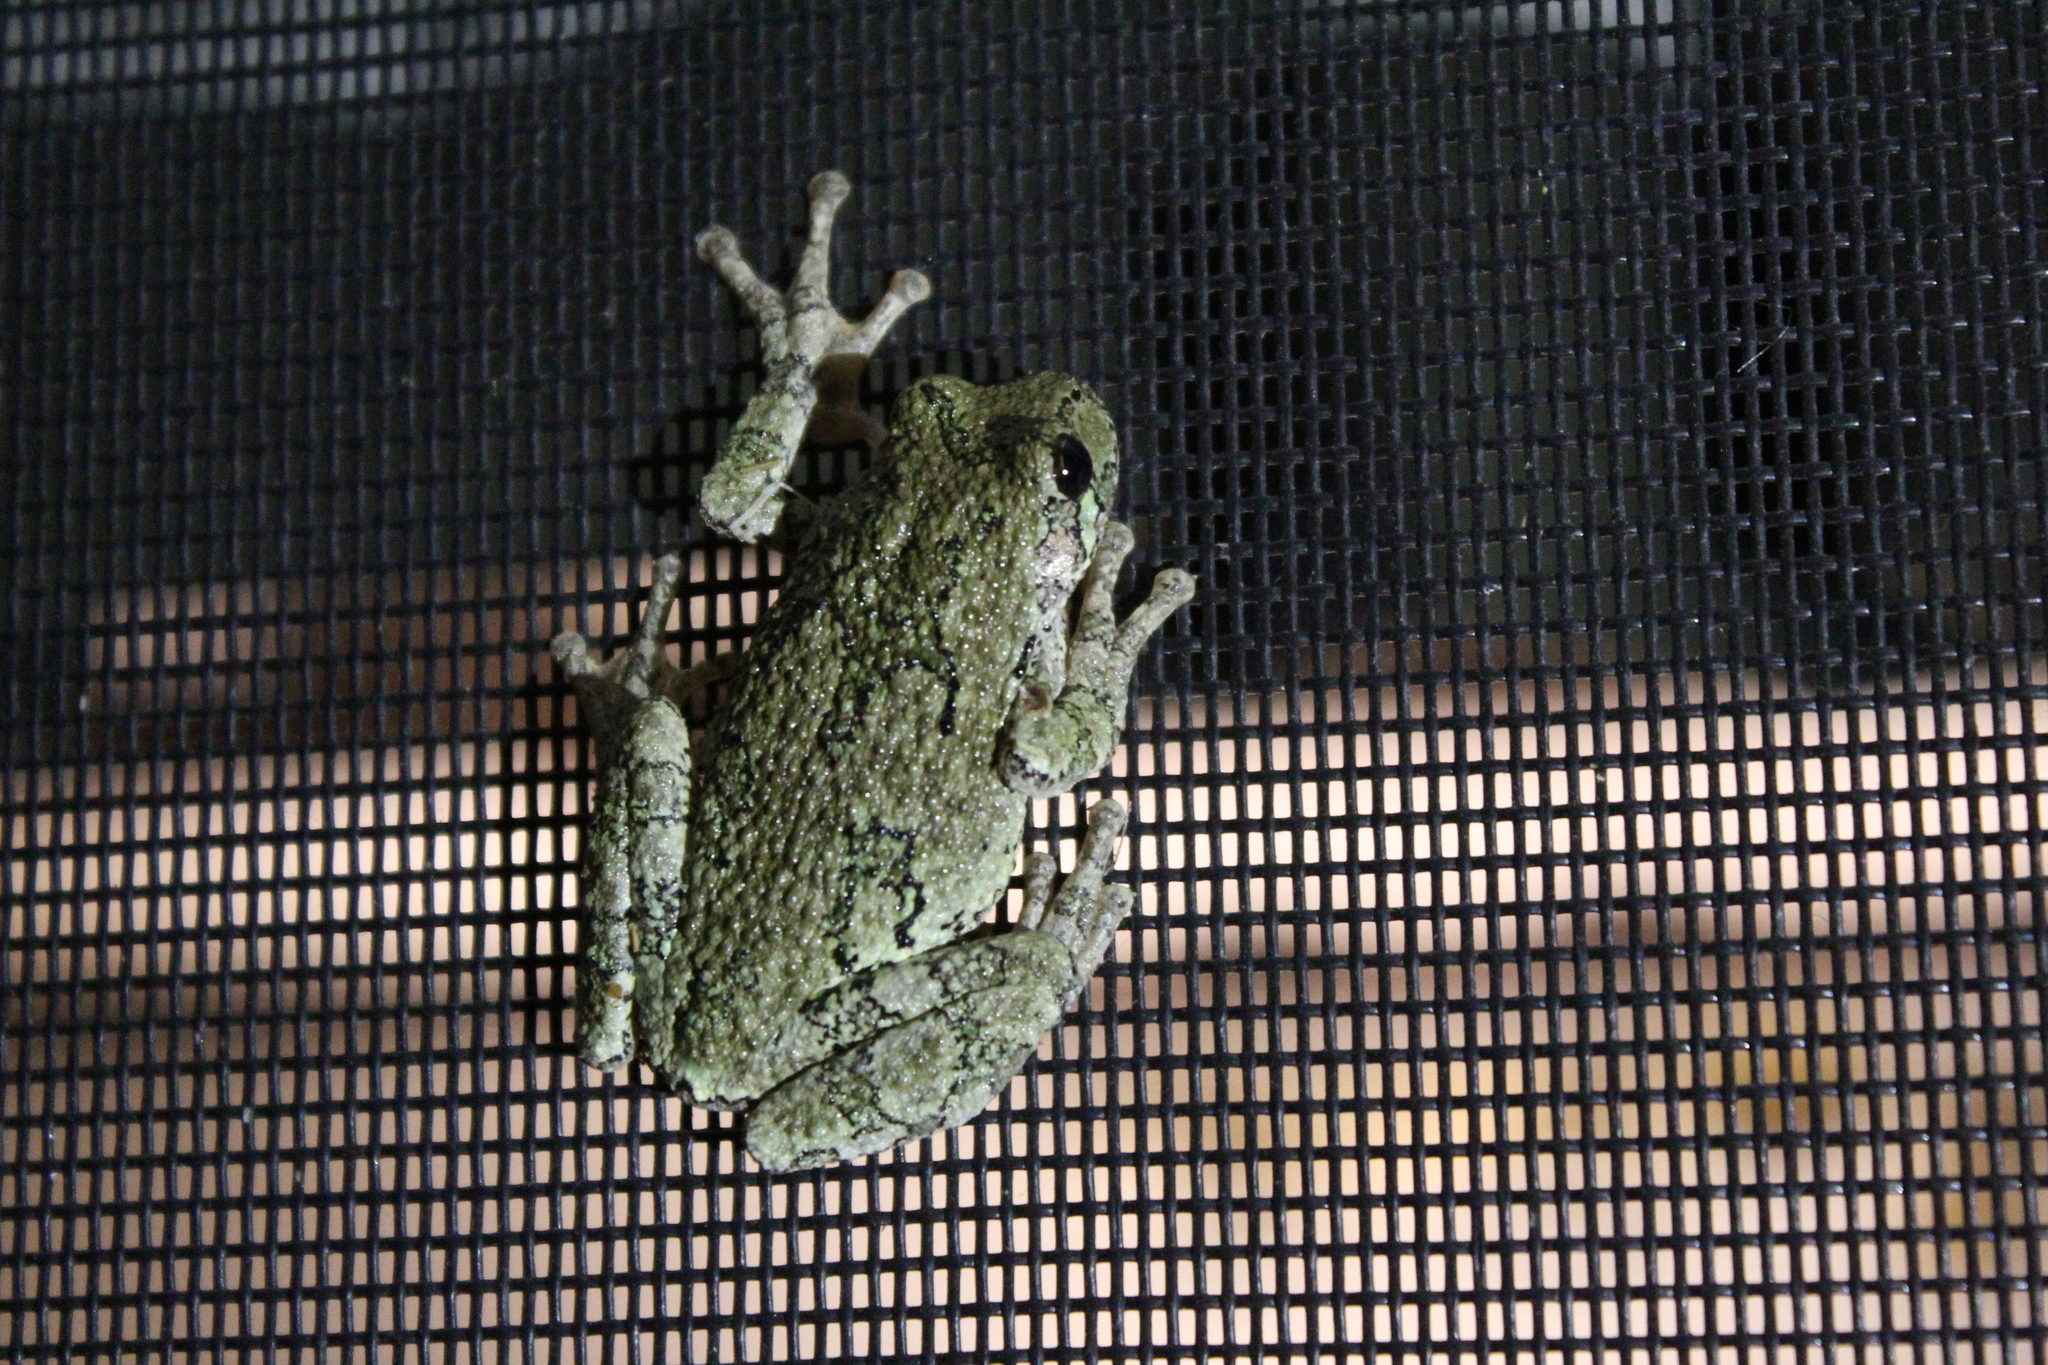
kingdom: Animalia
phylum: Chordata
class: Amphibia
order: Anura
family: Hylidae
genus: Dryophytes
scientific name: Dryophytes versicolor
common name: Gray treefrog
